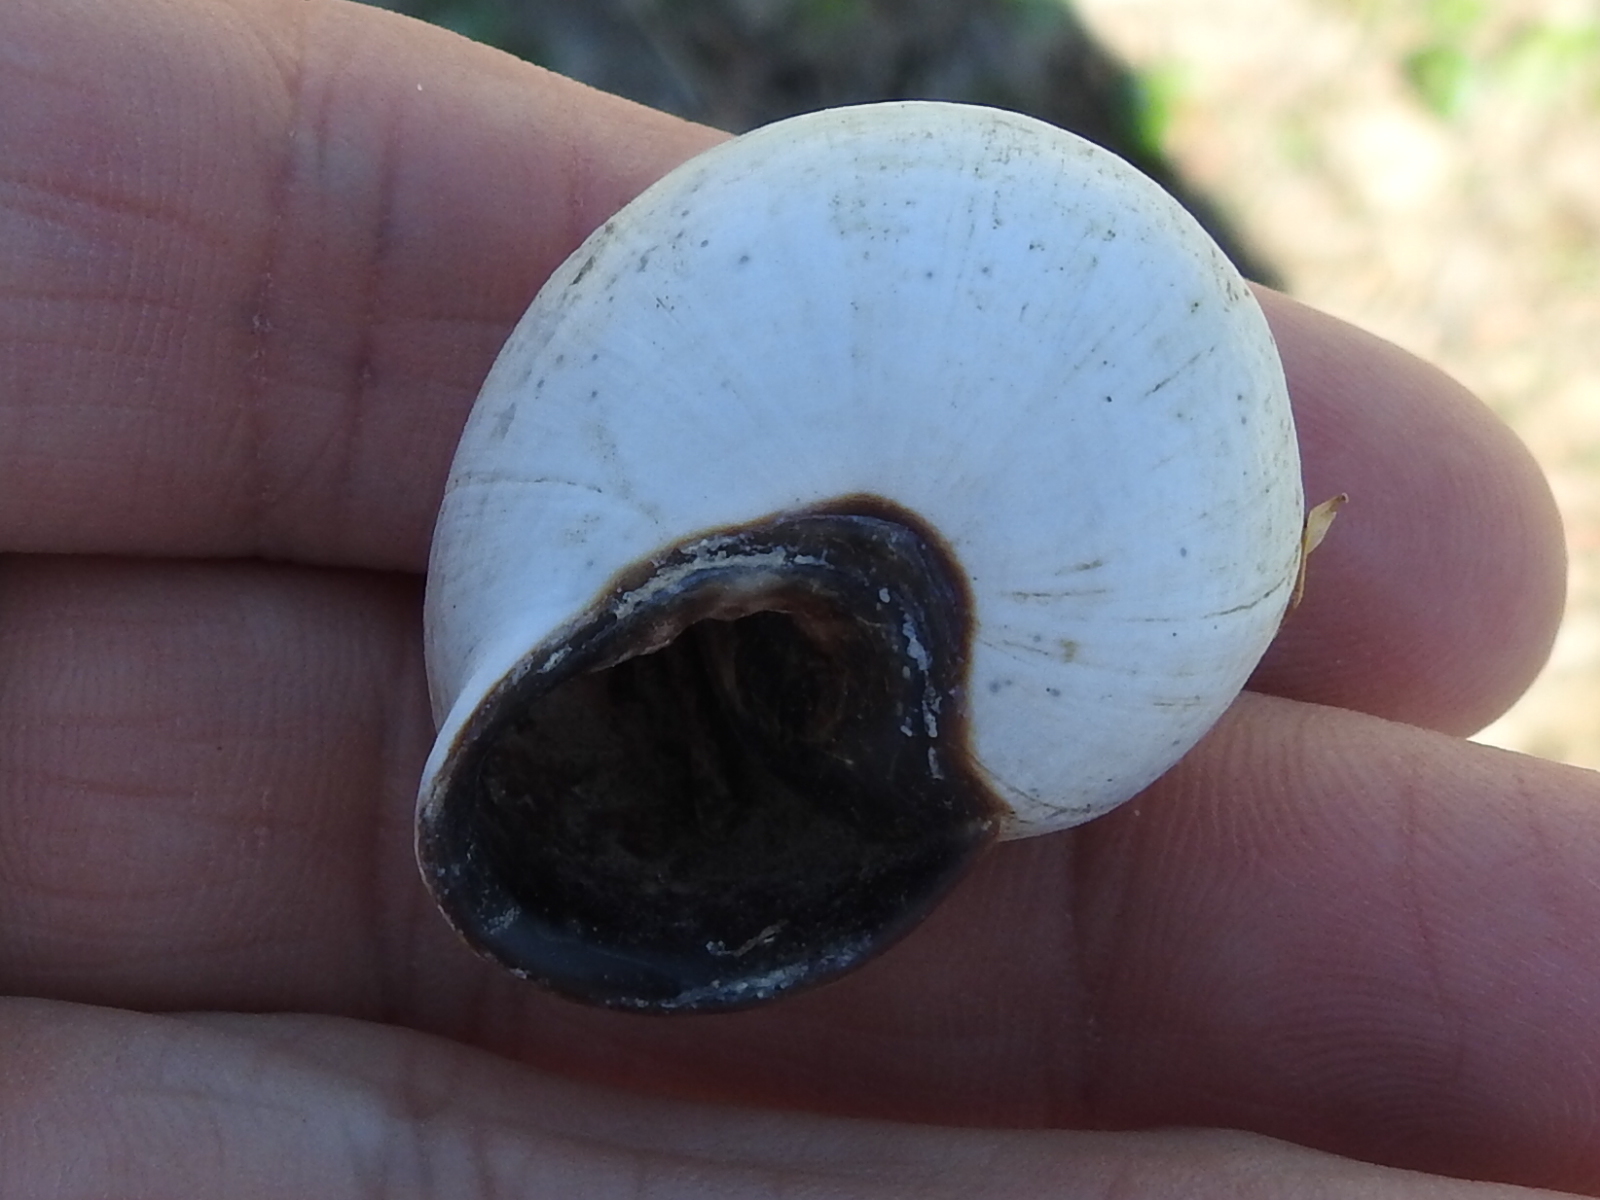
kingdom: Animalia
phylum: Mollusca
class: Gastropoda
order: Stylommatophora
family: Helicidae
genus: Otala
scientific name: Otala lactea
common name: Milk snail
